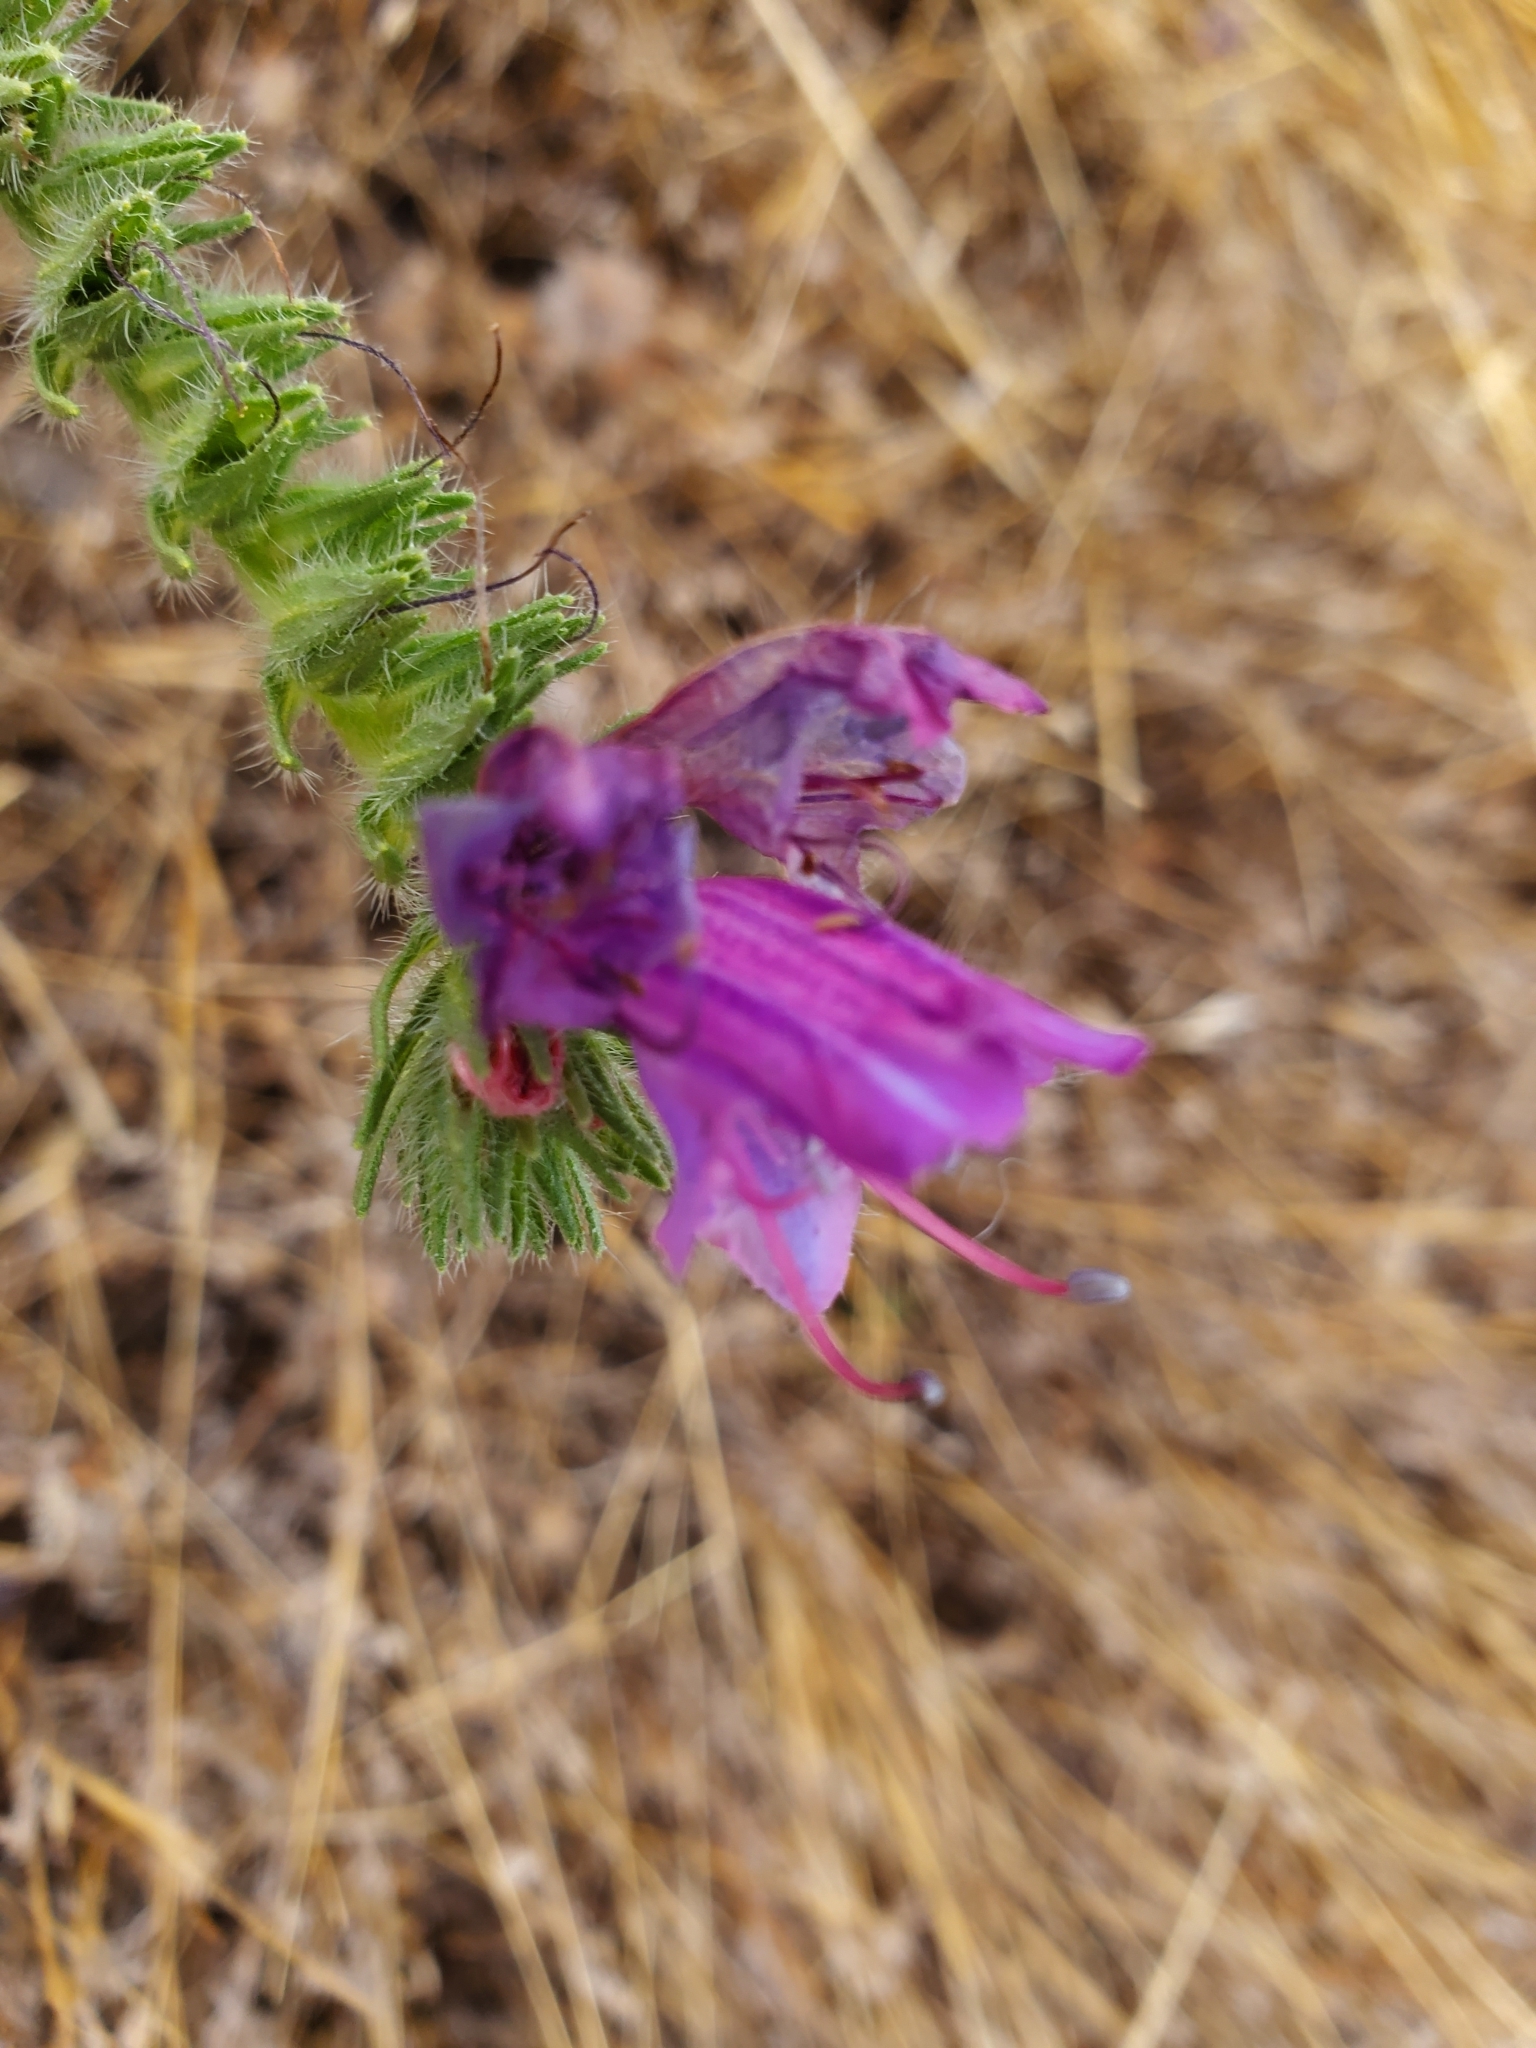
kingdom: Plantae
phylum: Tracheophyta
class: Magnoliopsida
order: Boraginales
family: Boraginaceae
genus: Echium
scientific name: Echium plantagineum
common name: Purple viper's-bugloss
